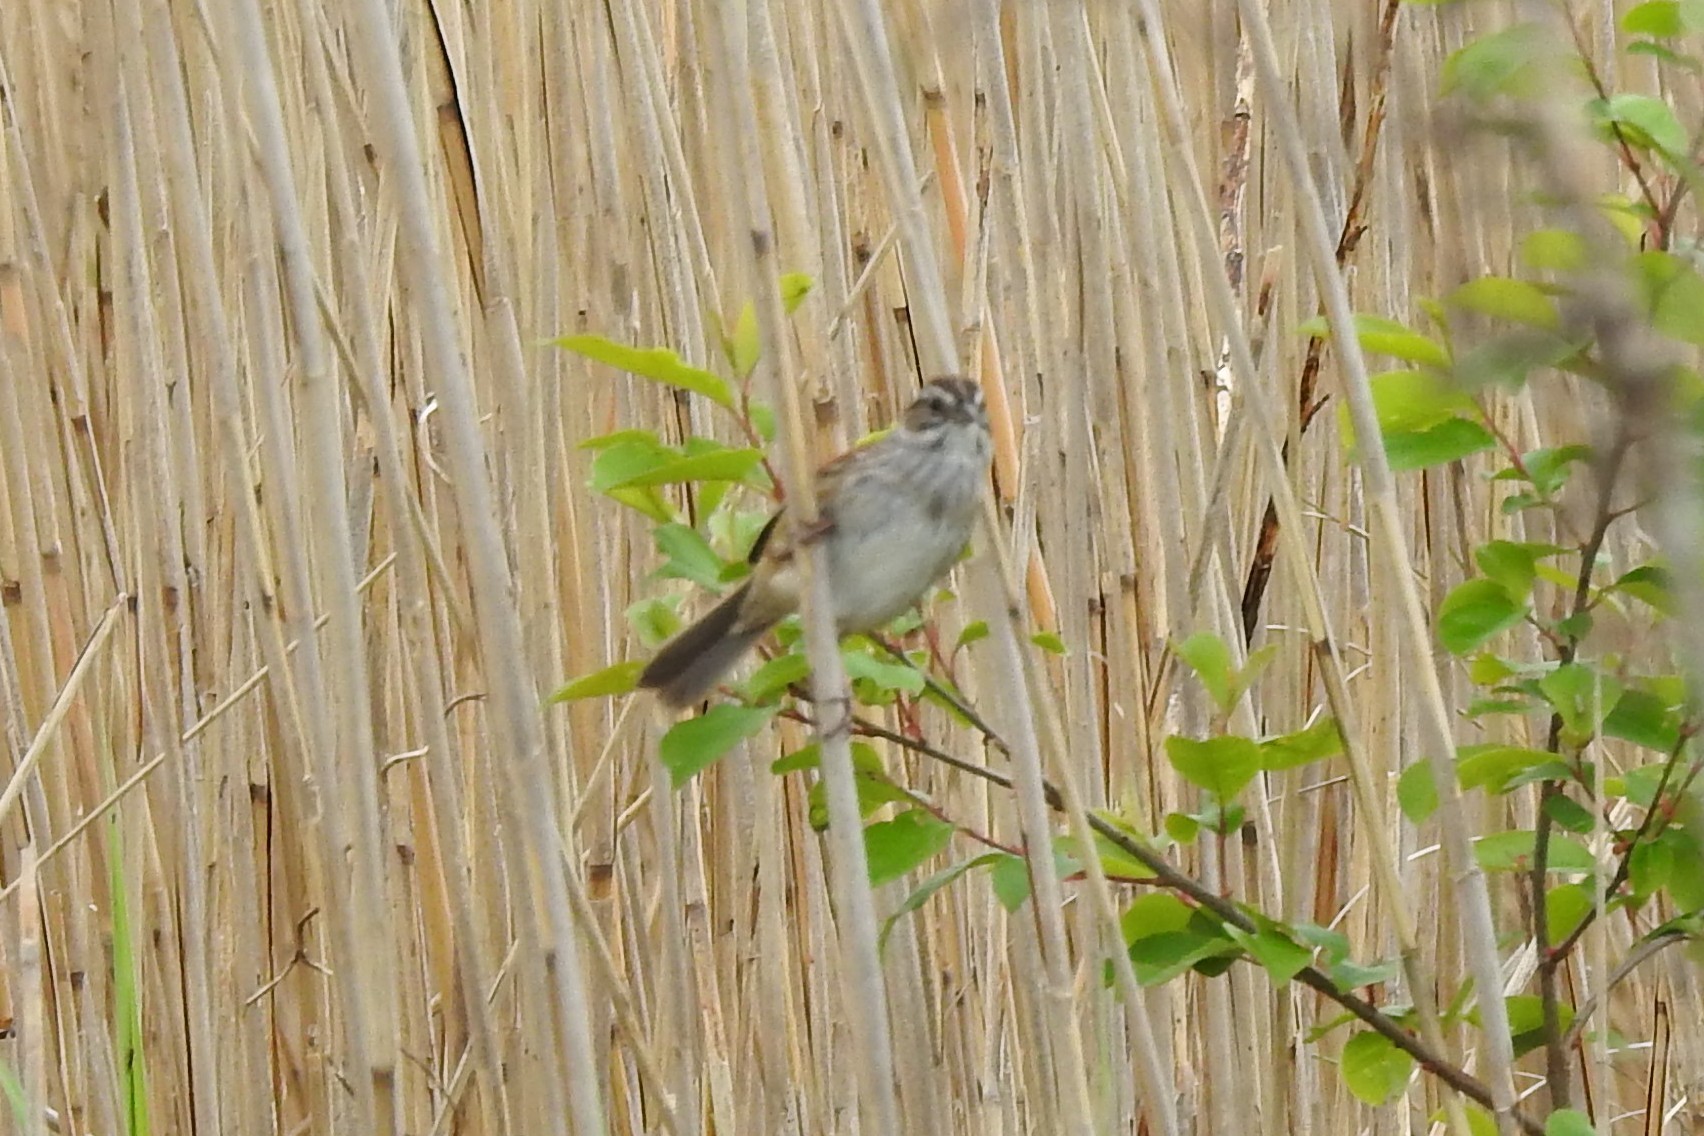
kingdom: Animalia
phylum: Chordata
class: Aves
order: Passeriformes
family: Passerellidae
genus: Melospiza
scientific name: Melospiza georgiana
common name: Swamp sparrow
